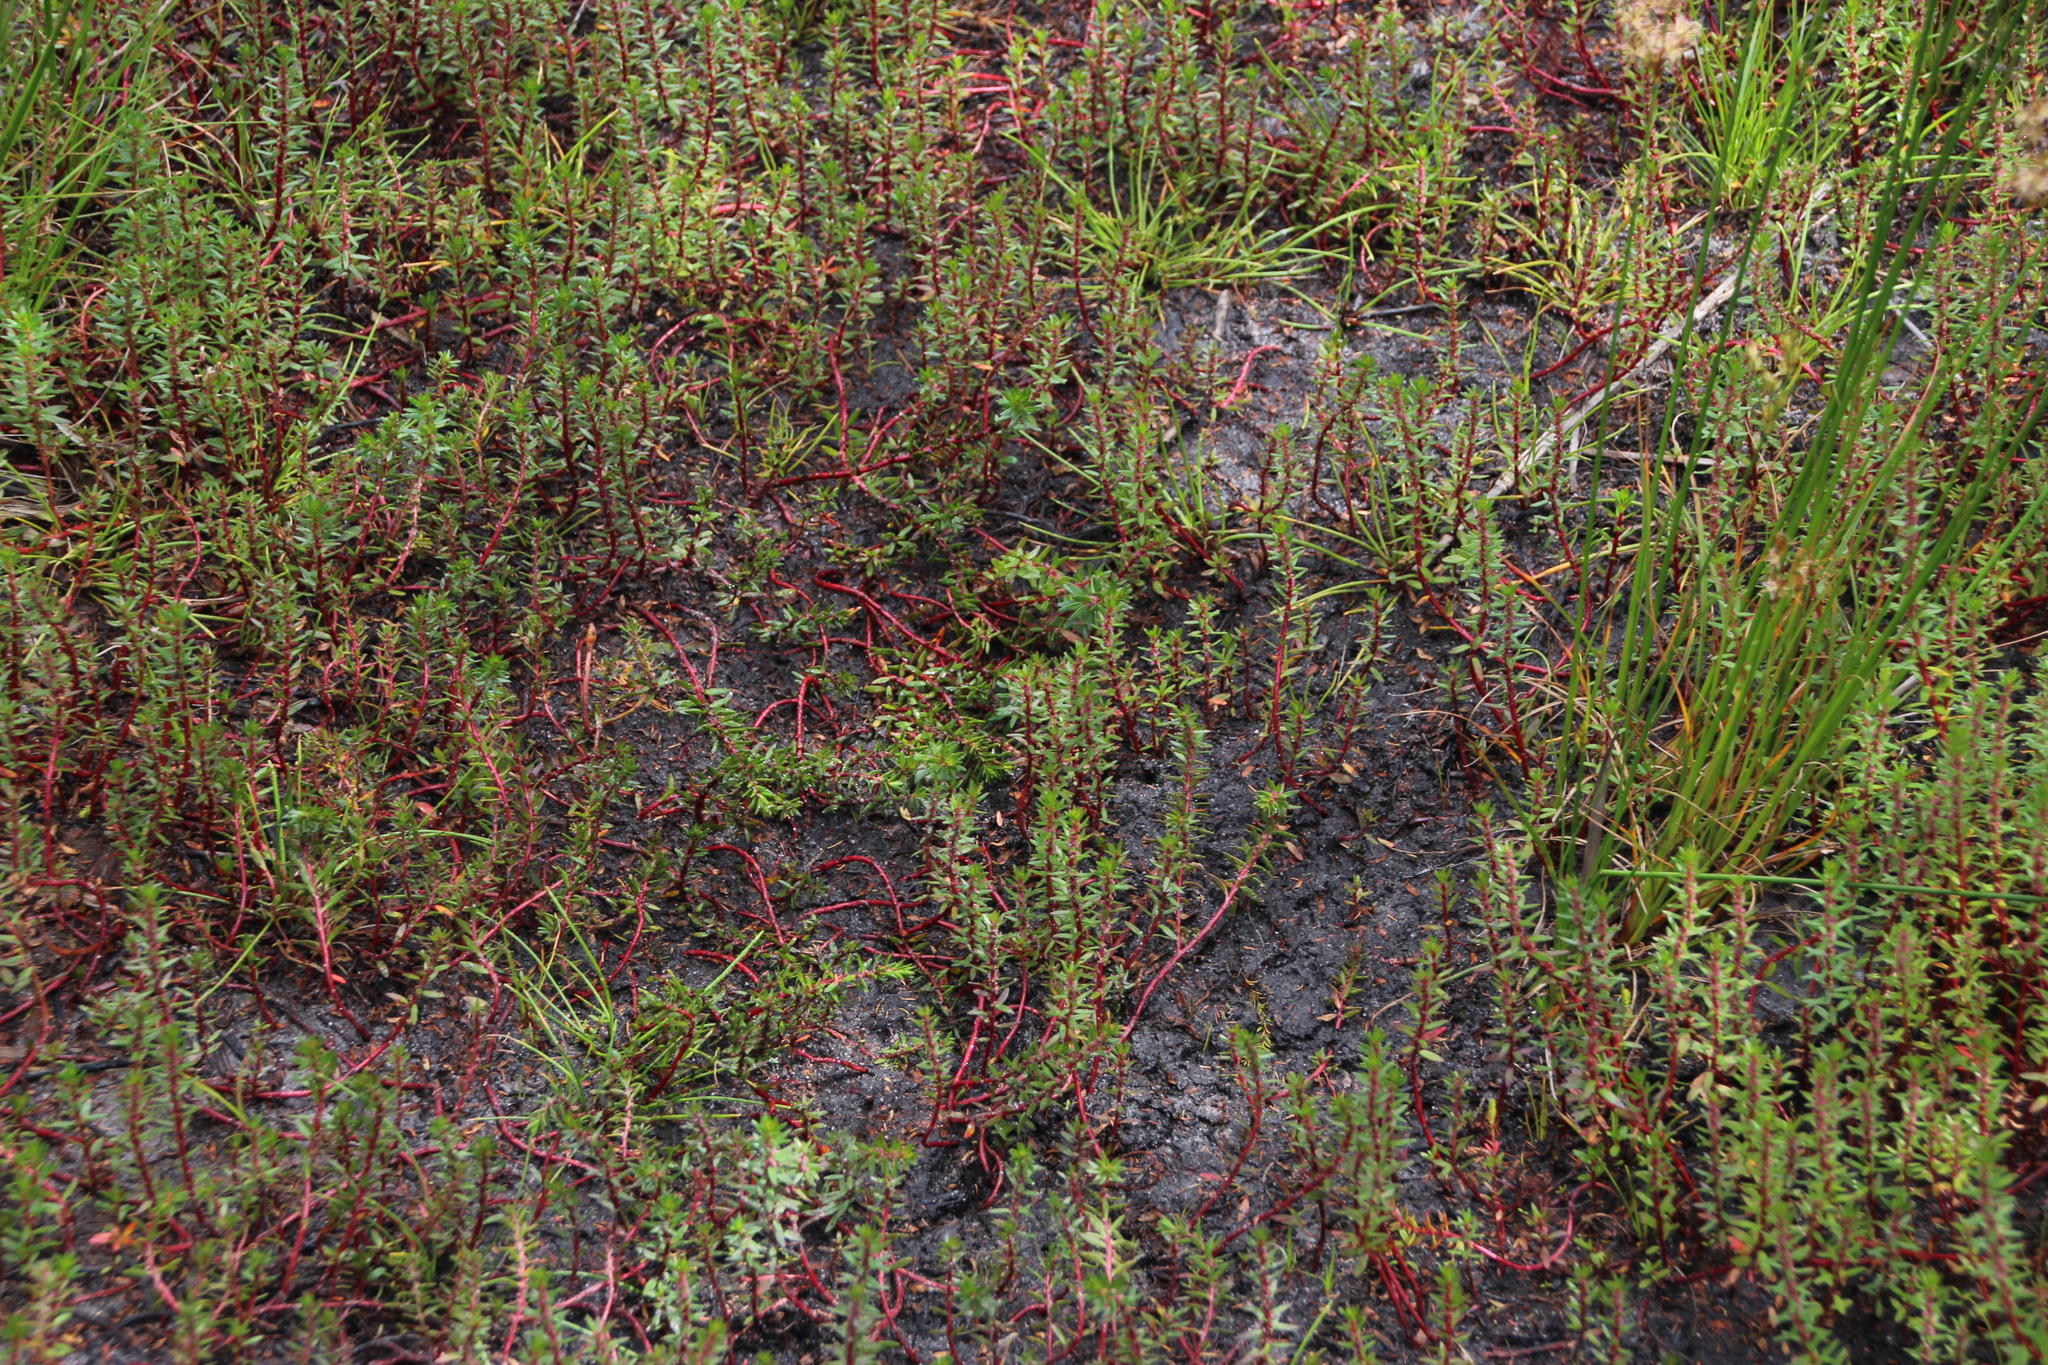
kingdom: Plantae
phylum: Tracheophyta
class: Magnoliopsida
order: Saxifragales
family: Haloragaceae
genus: Laurembergia
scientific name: Laurembergia repens
